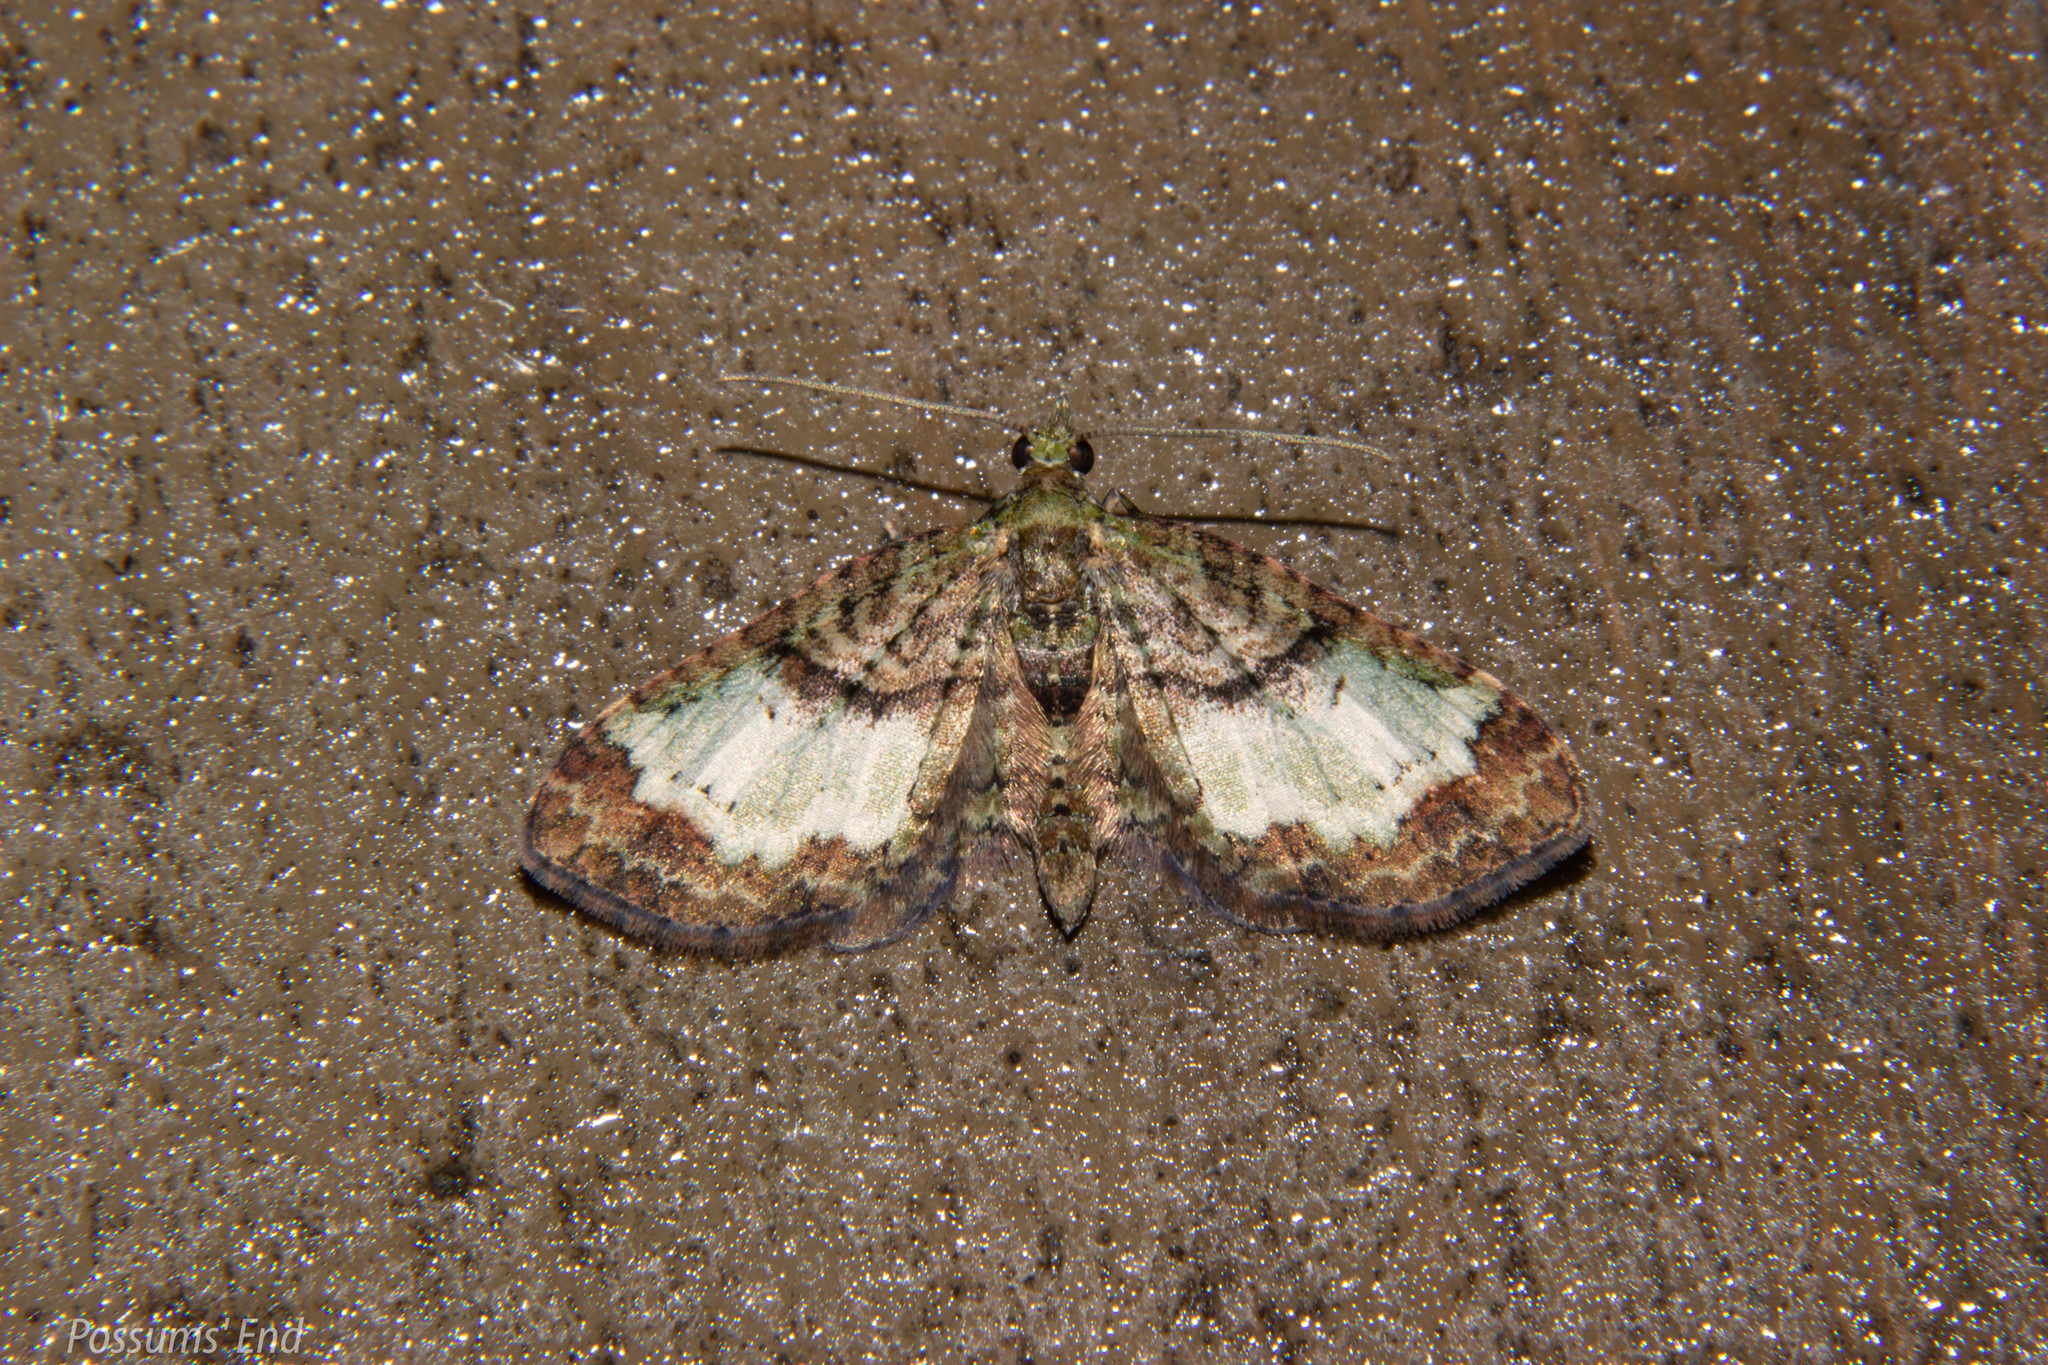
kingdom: Animalia
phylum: Arthropoda
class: Insecta
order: Lepidoptera
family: Geometridae
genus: Idaea
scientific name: Idaea mutanda
